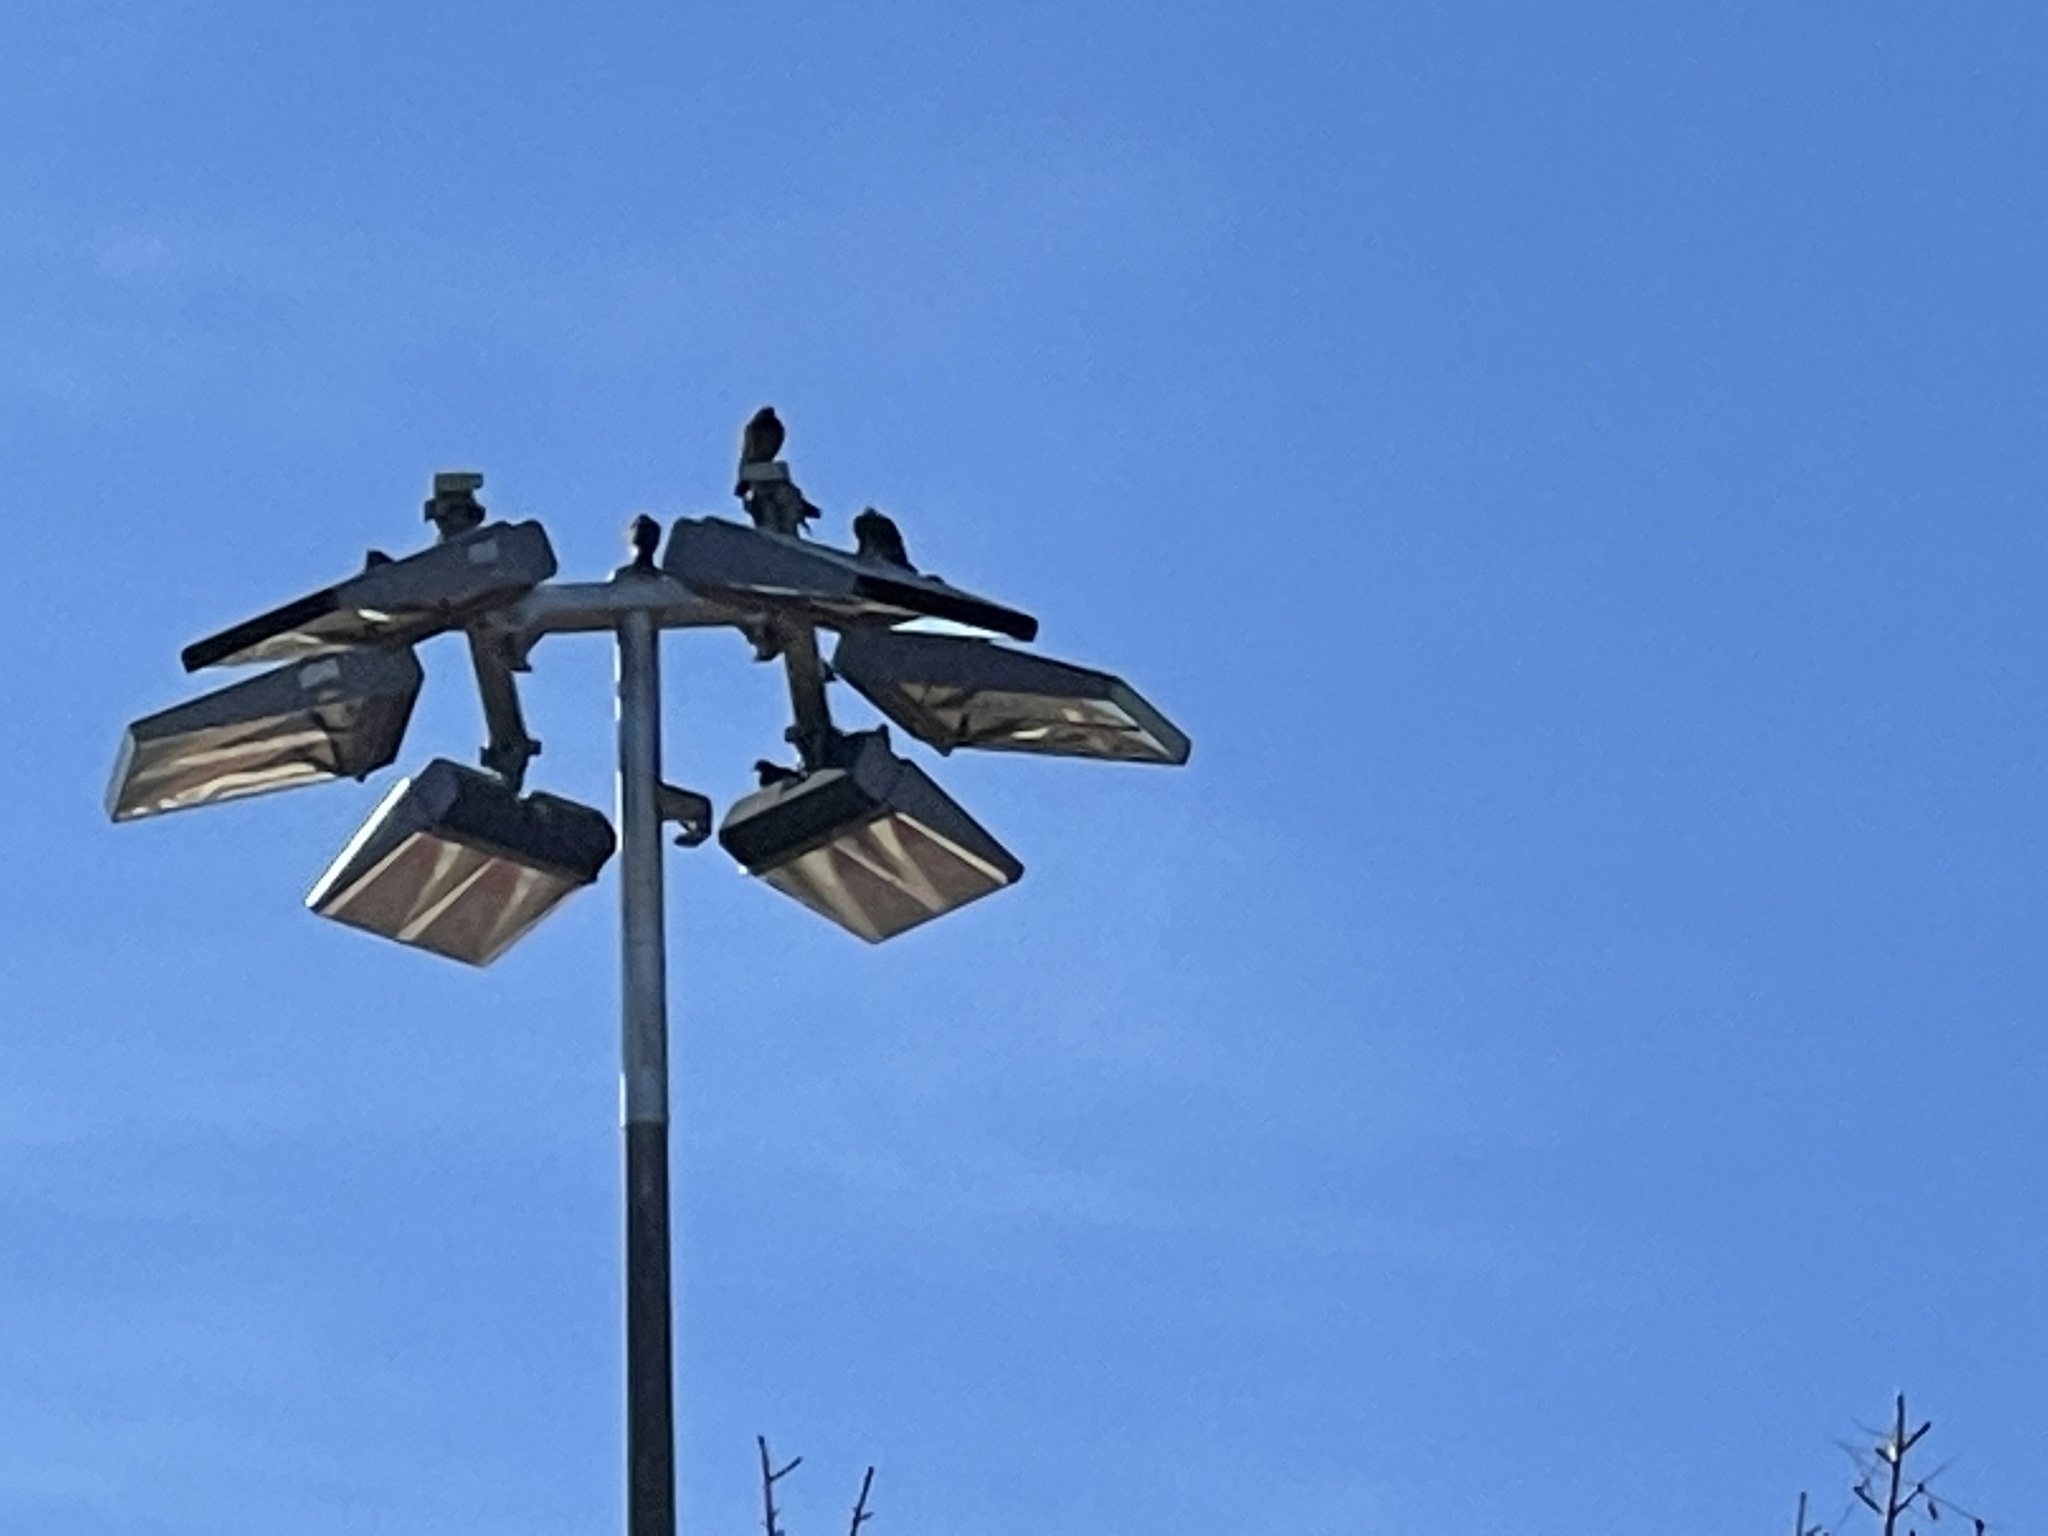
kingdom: Animalia
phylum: Chordata
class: Aves
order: Columbiformes
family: Columbidae
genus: Columba
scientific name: Columba livia
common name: Rock pigeon
